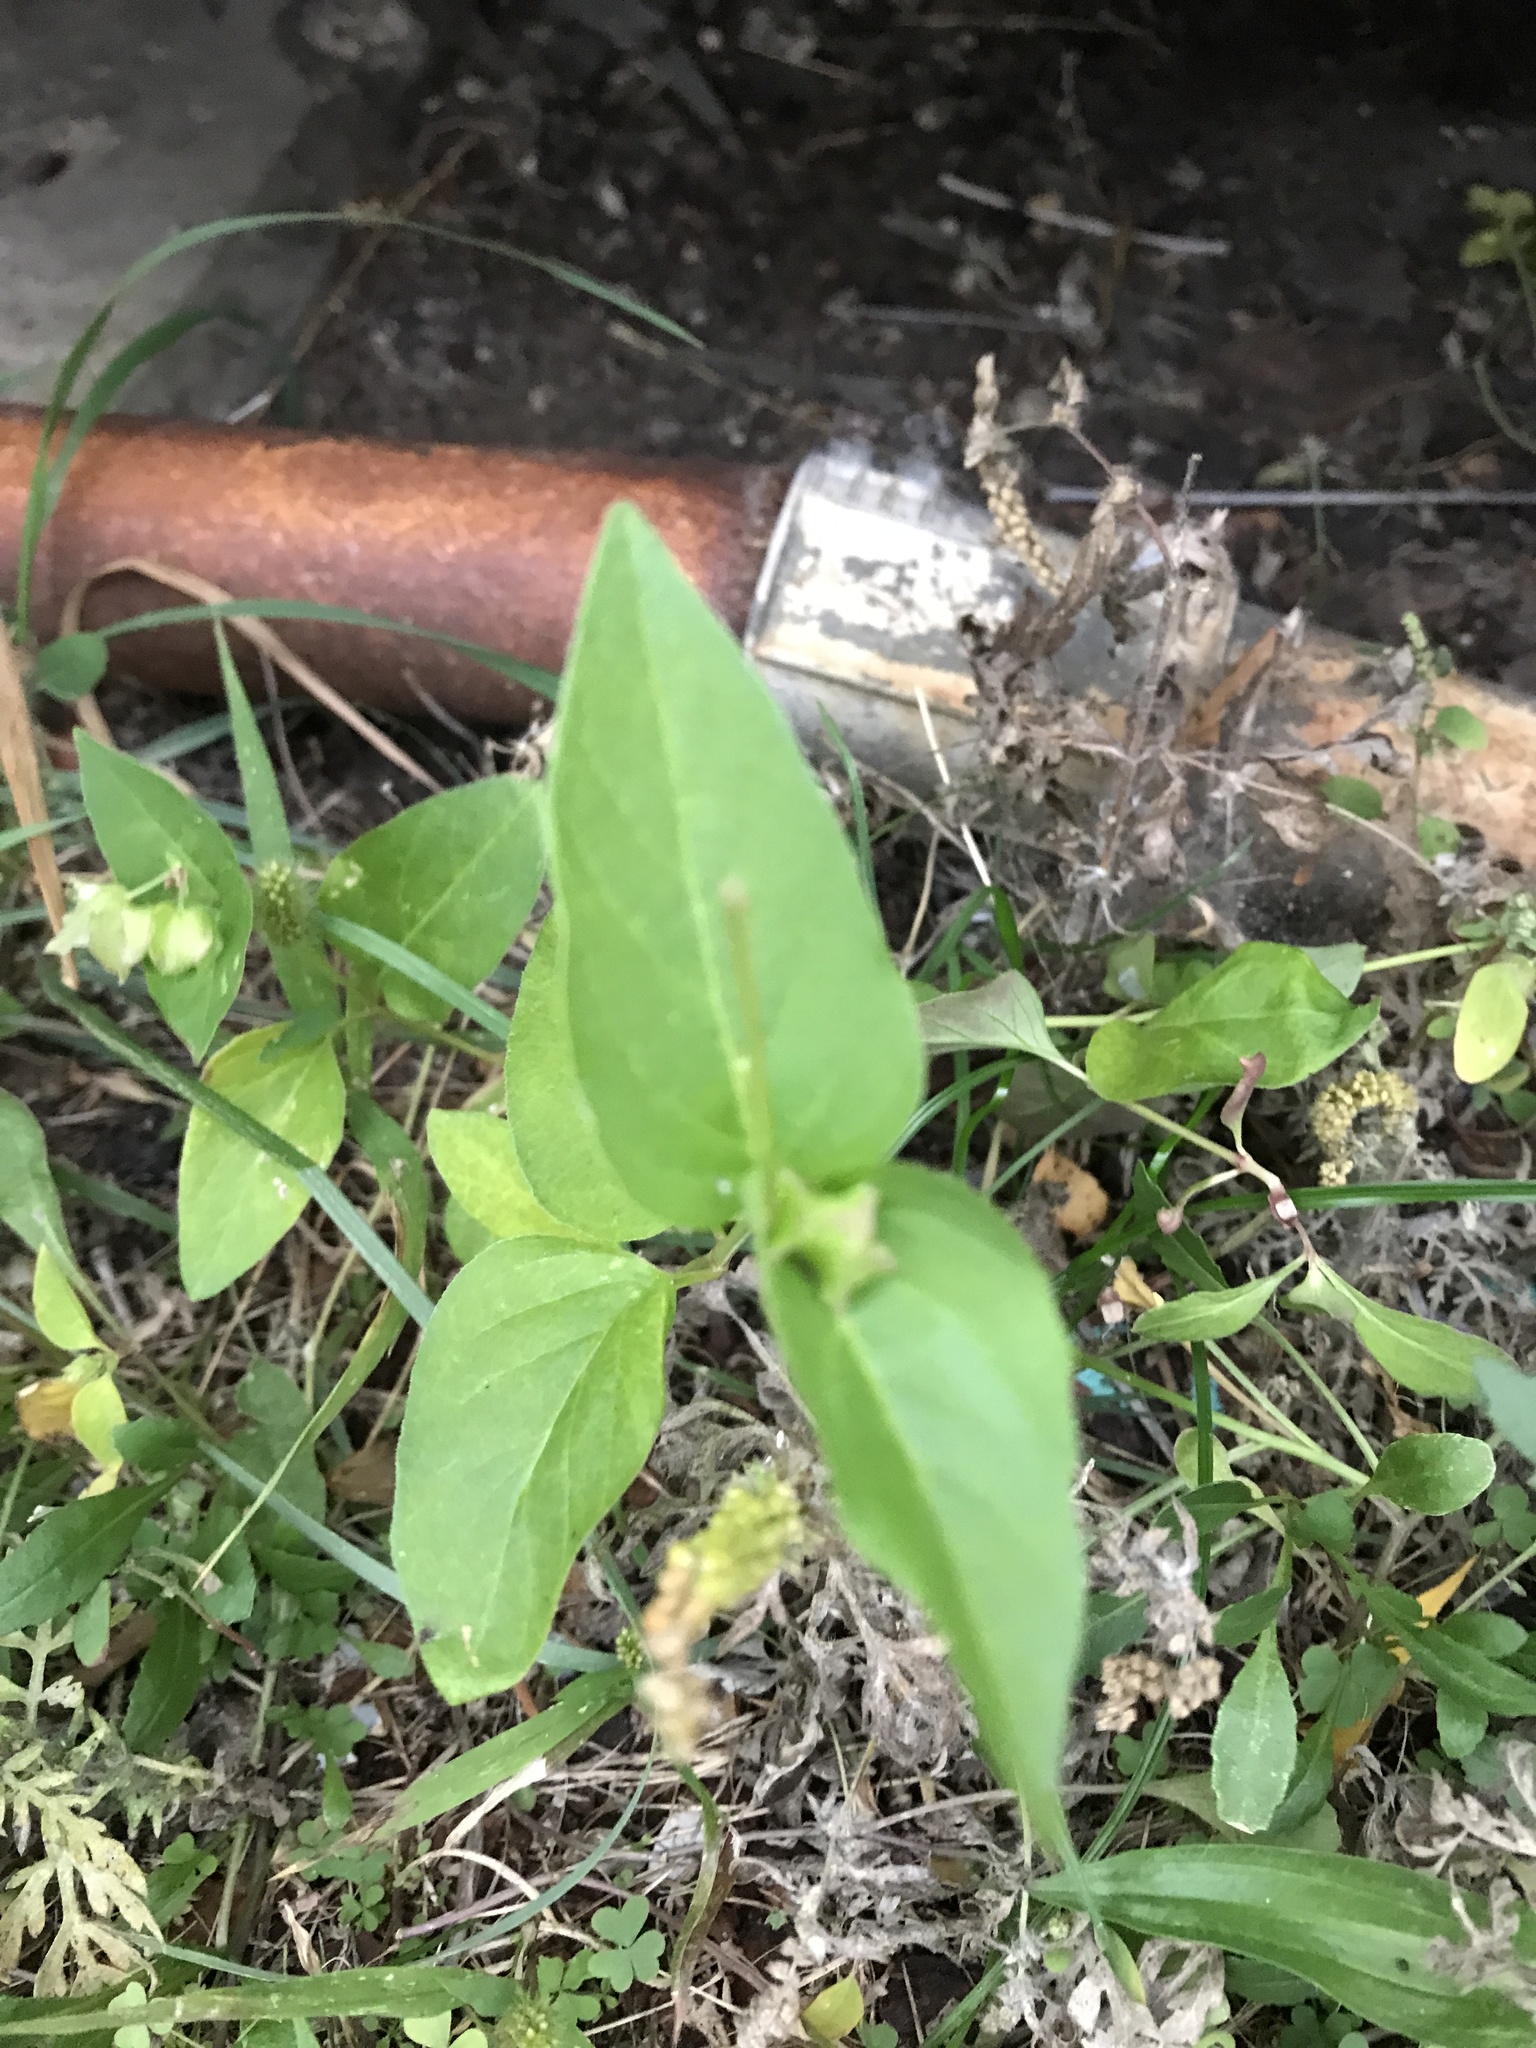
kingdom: Plantae
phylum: Tracheophyta
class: Magnoliopsida
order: Caryophyllales
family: Nyctaginaceae
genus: Mirabilis
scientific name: Mirabilis nyctaginea
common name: Umbrella wort
